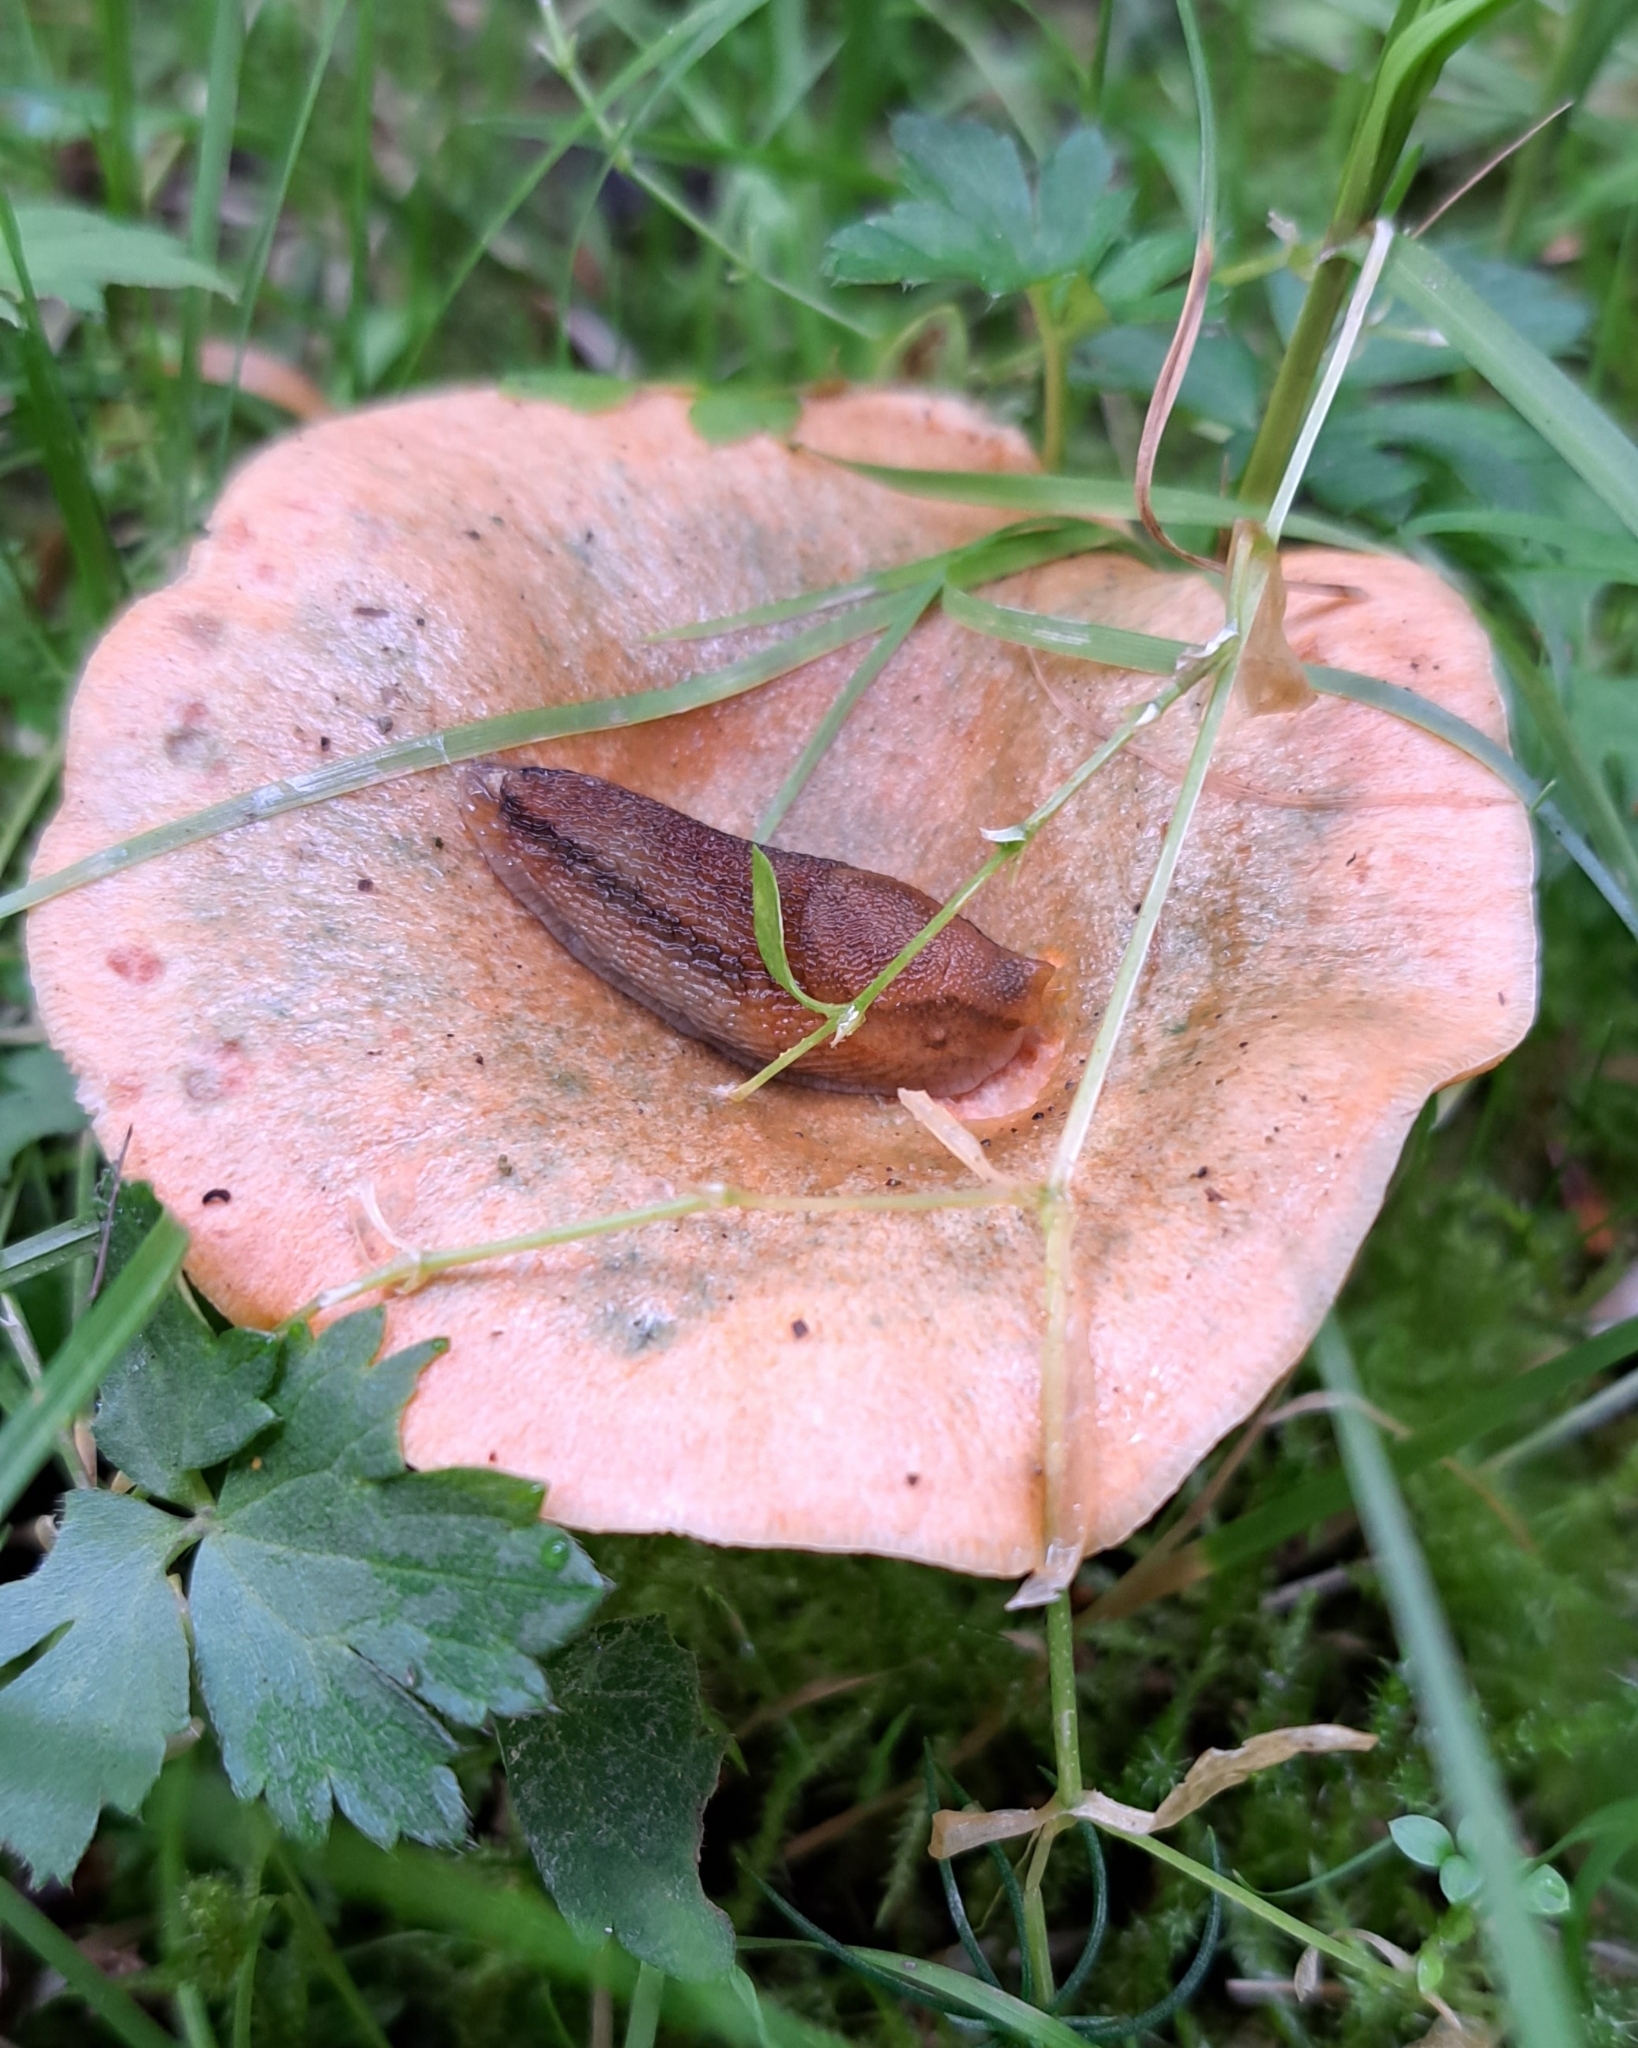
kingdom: Fungi
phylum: Basidiomycota
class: Agaricomycetes
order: Russulales
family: Russulaceae
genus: Lactarius
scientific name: Lactarius deterrimus
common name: False saffron milkcap
